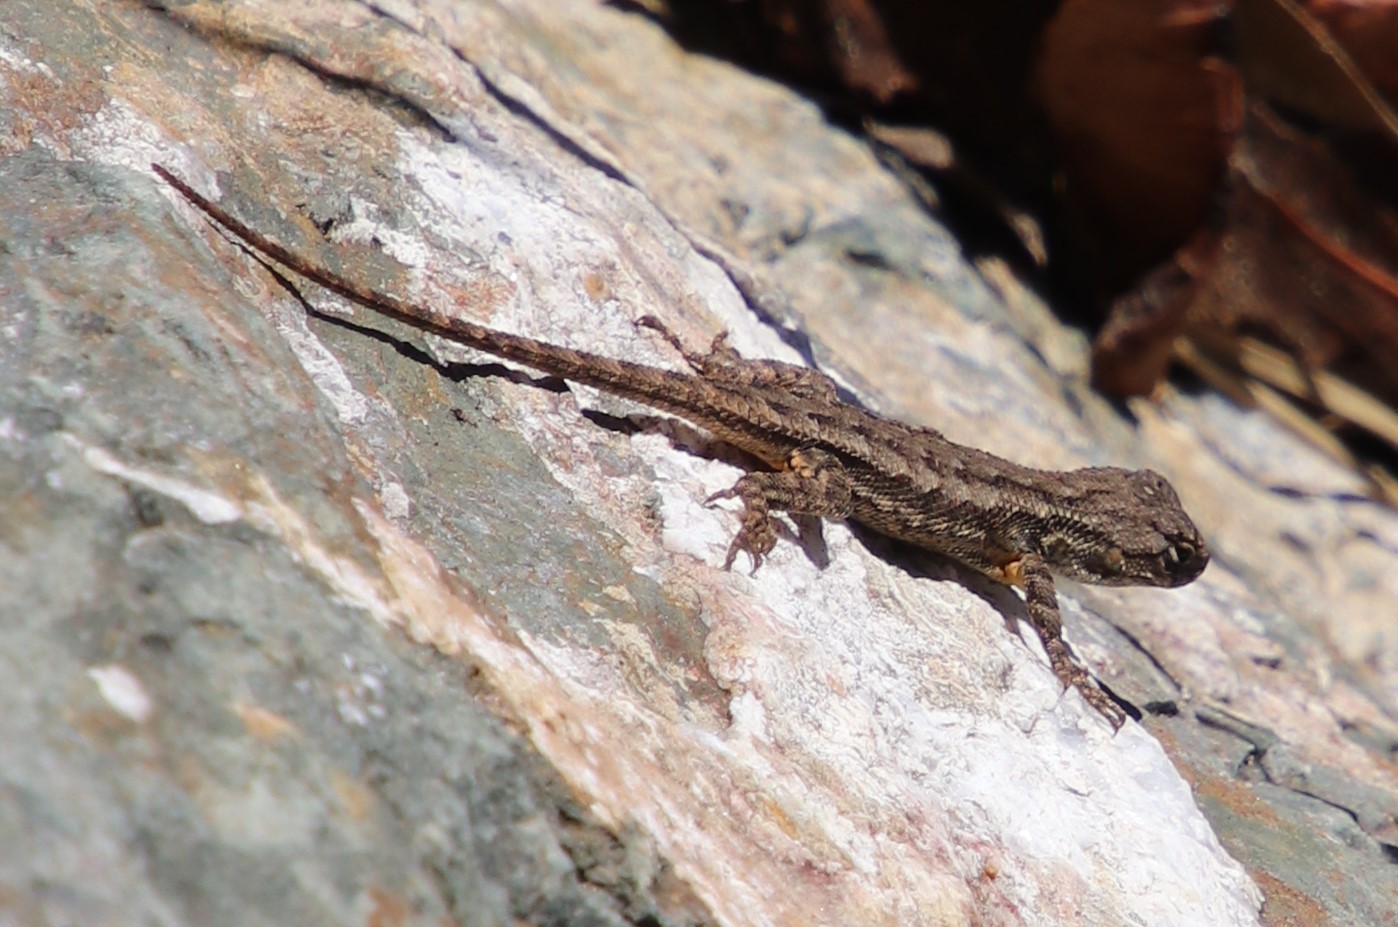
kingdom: Animalia
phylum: Chordata
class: Squamata
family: Phrynosomatidae
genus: Sceloporus
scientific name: Sceloporus occidentalis
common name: Western fence lizard
